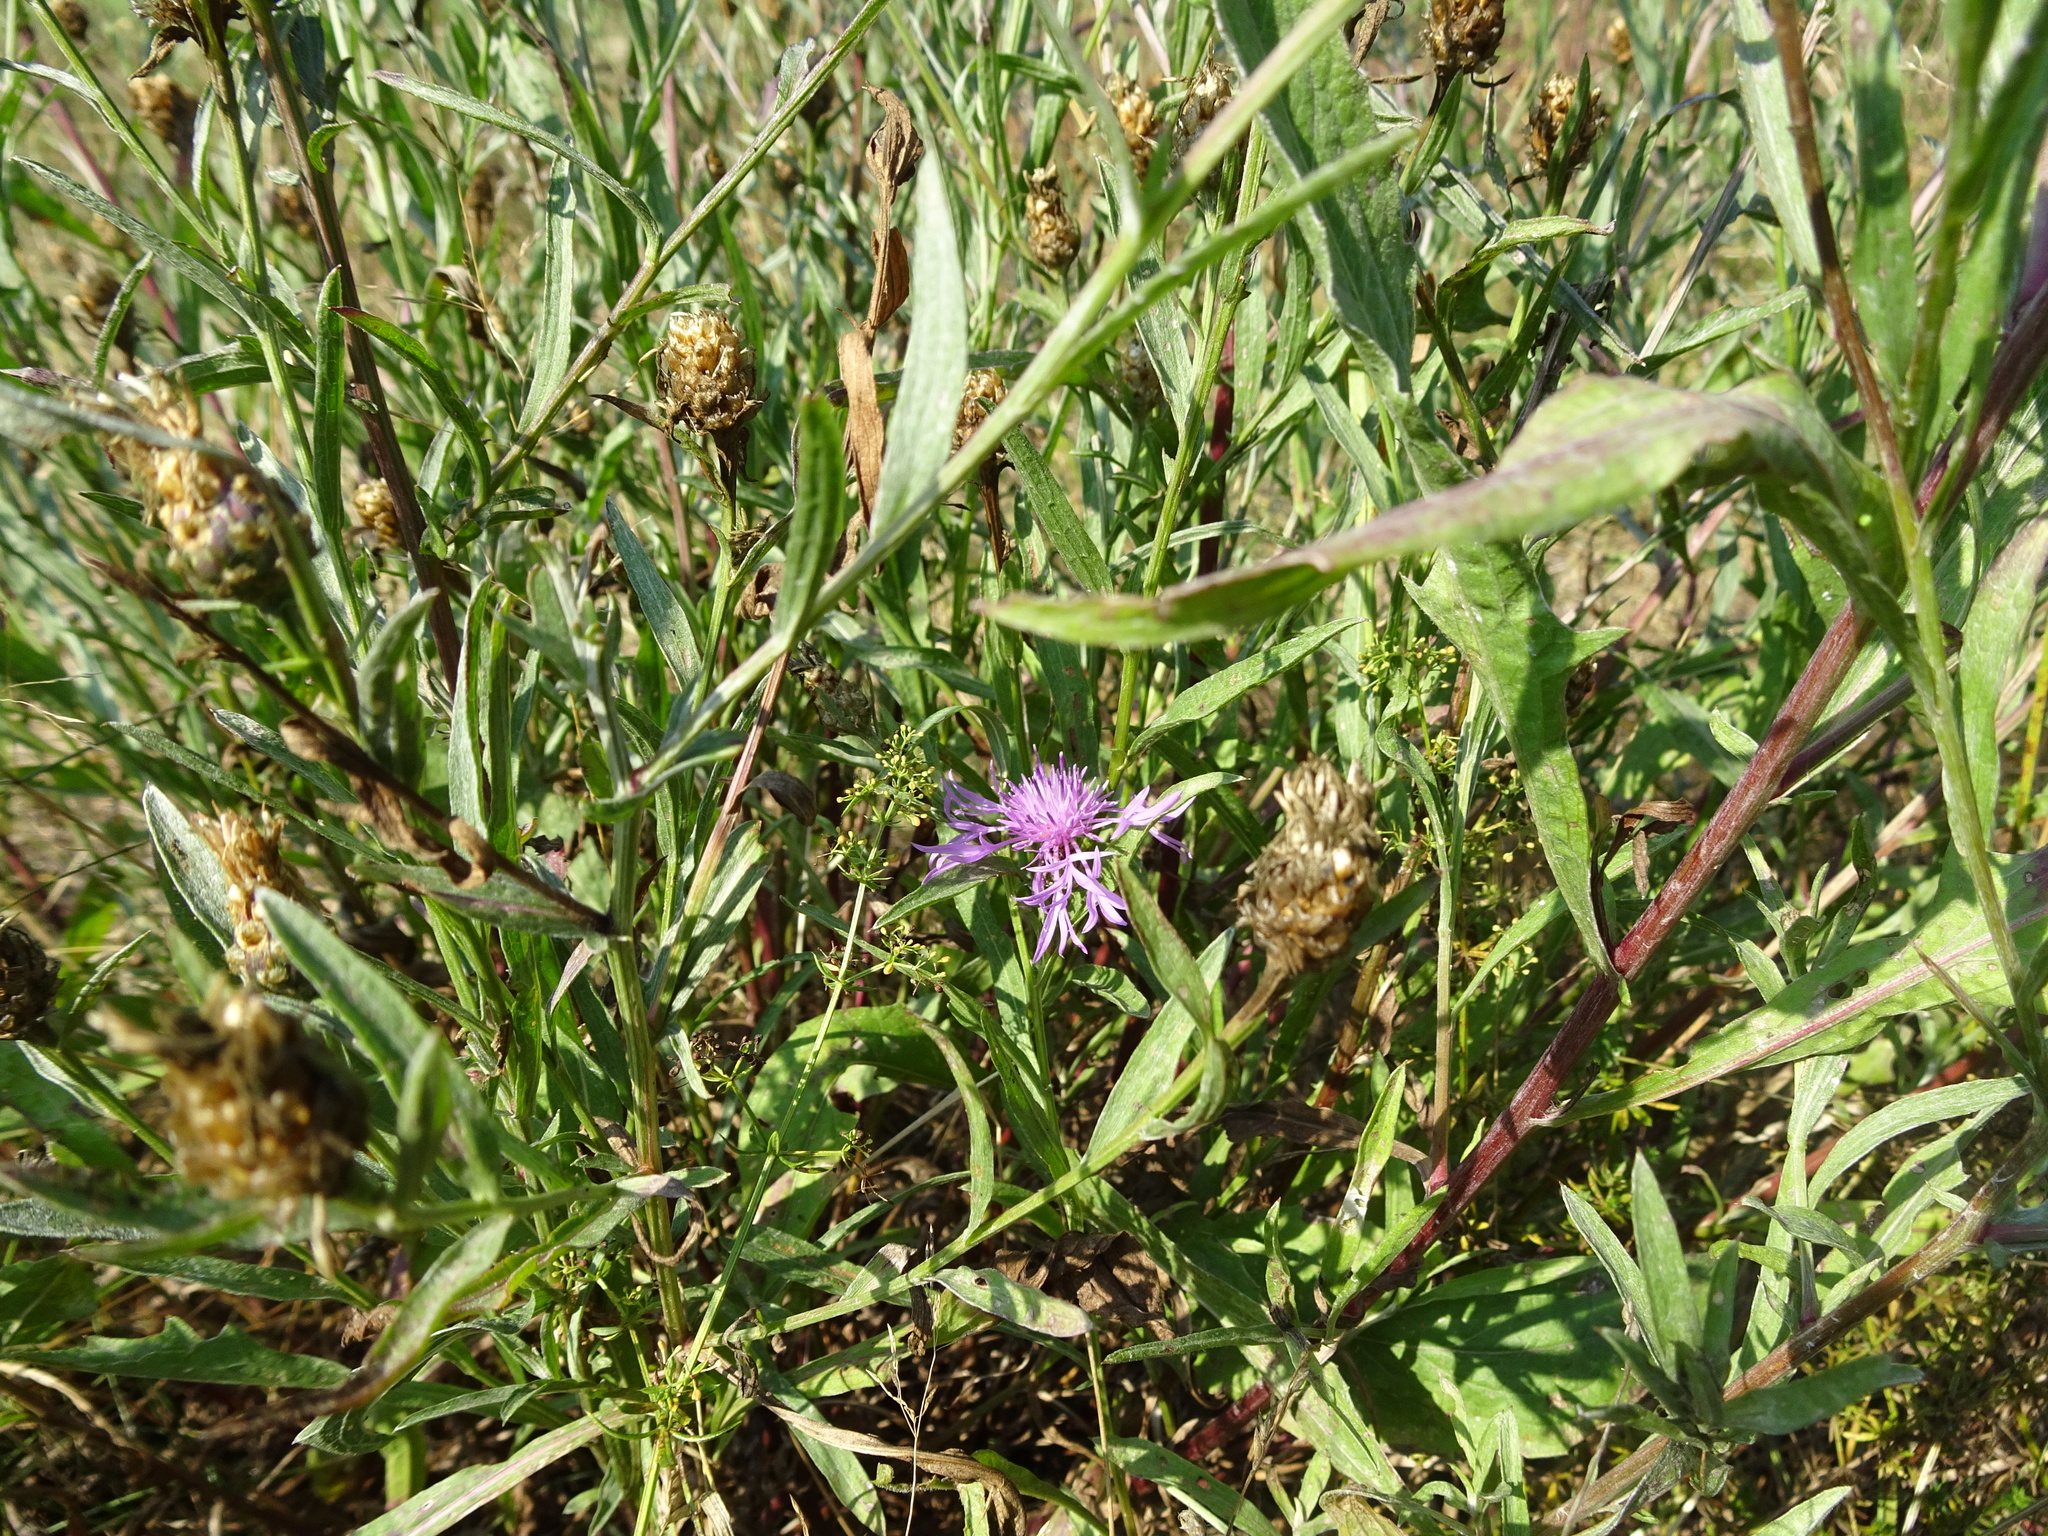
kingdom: Plantae
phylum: Tracheophyta
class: Magnoliopsida
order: Asterales
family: Asteraceae
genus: Centaurea
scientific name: Centaurea jacea
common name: Brown knapweed
